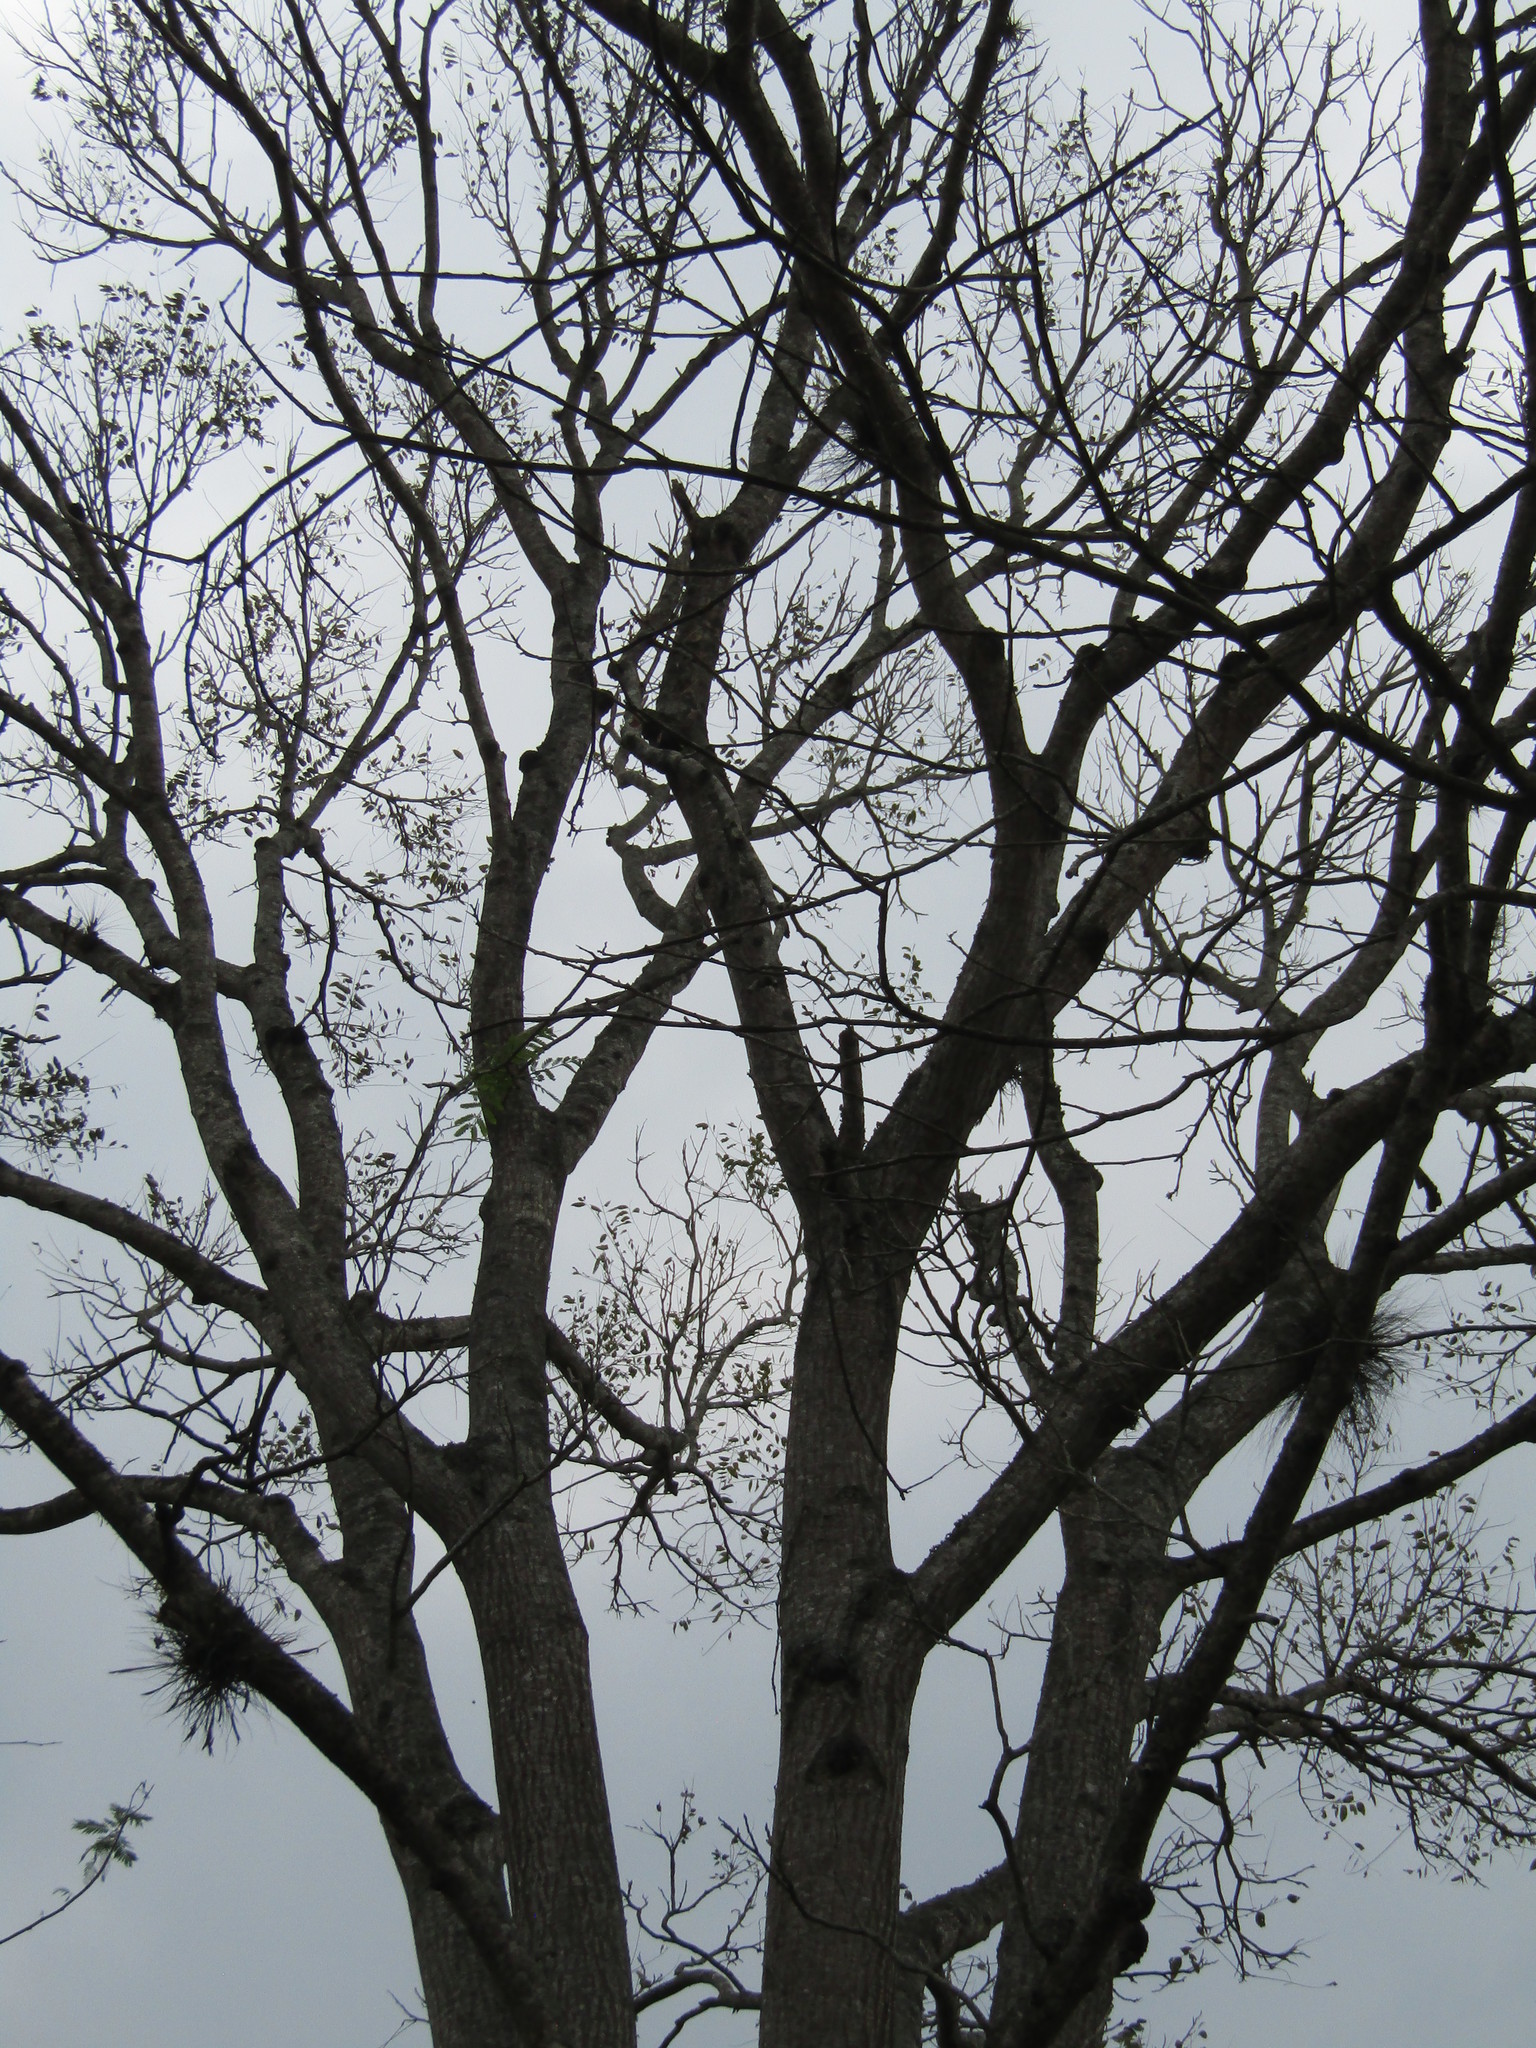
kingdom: Plantae
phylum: Tracheophyta
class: Magnoliopsida
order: Sapindales
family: Meliaceae
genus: Cedrela
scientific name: Cedrela odorata
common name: Red cedar
